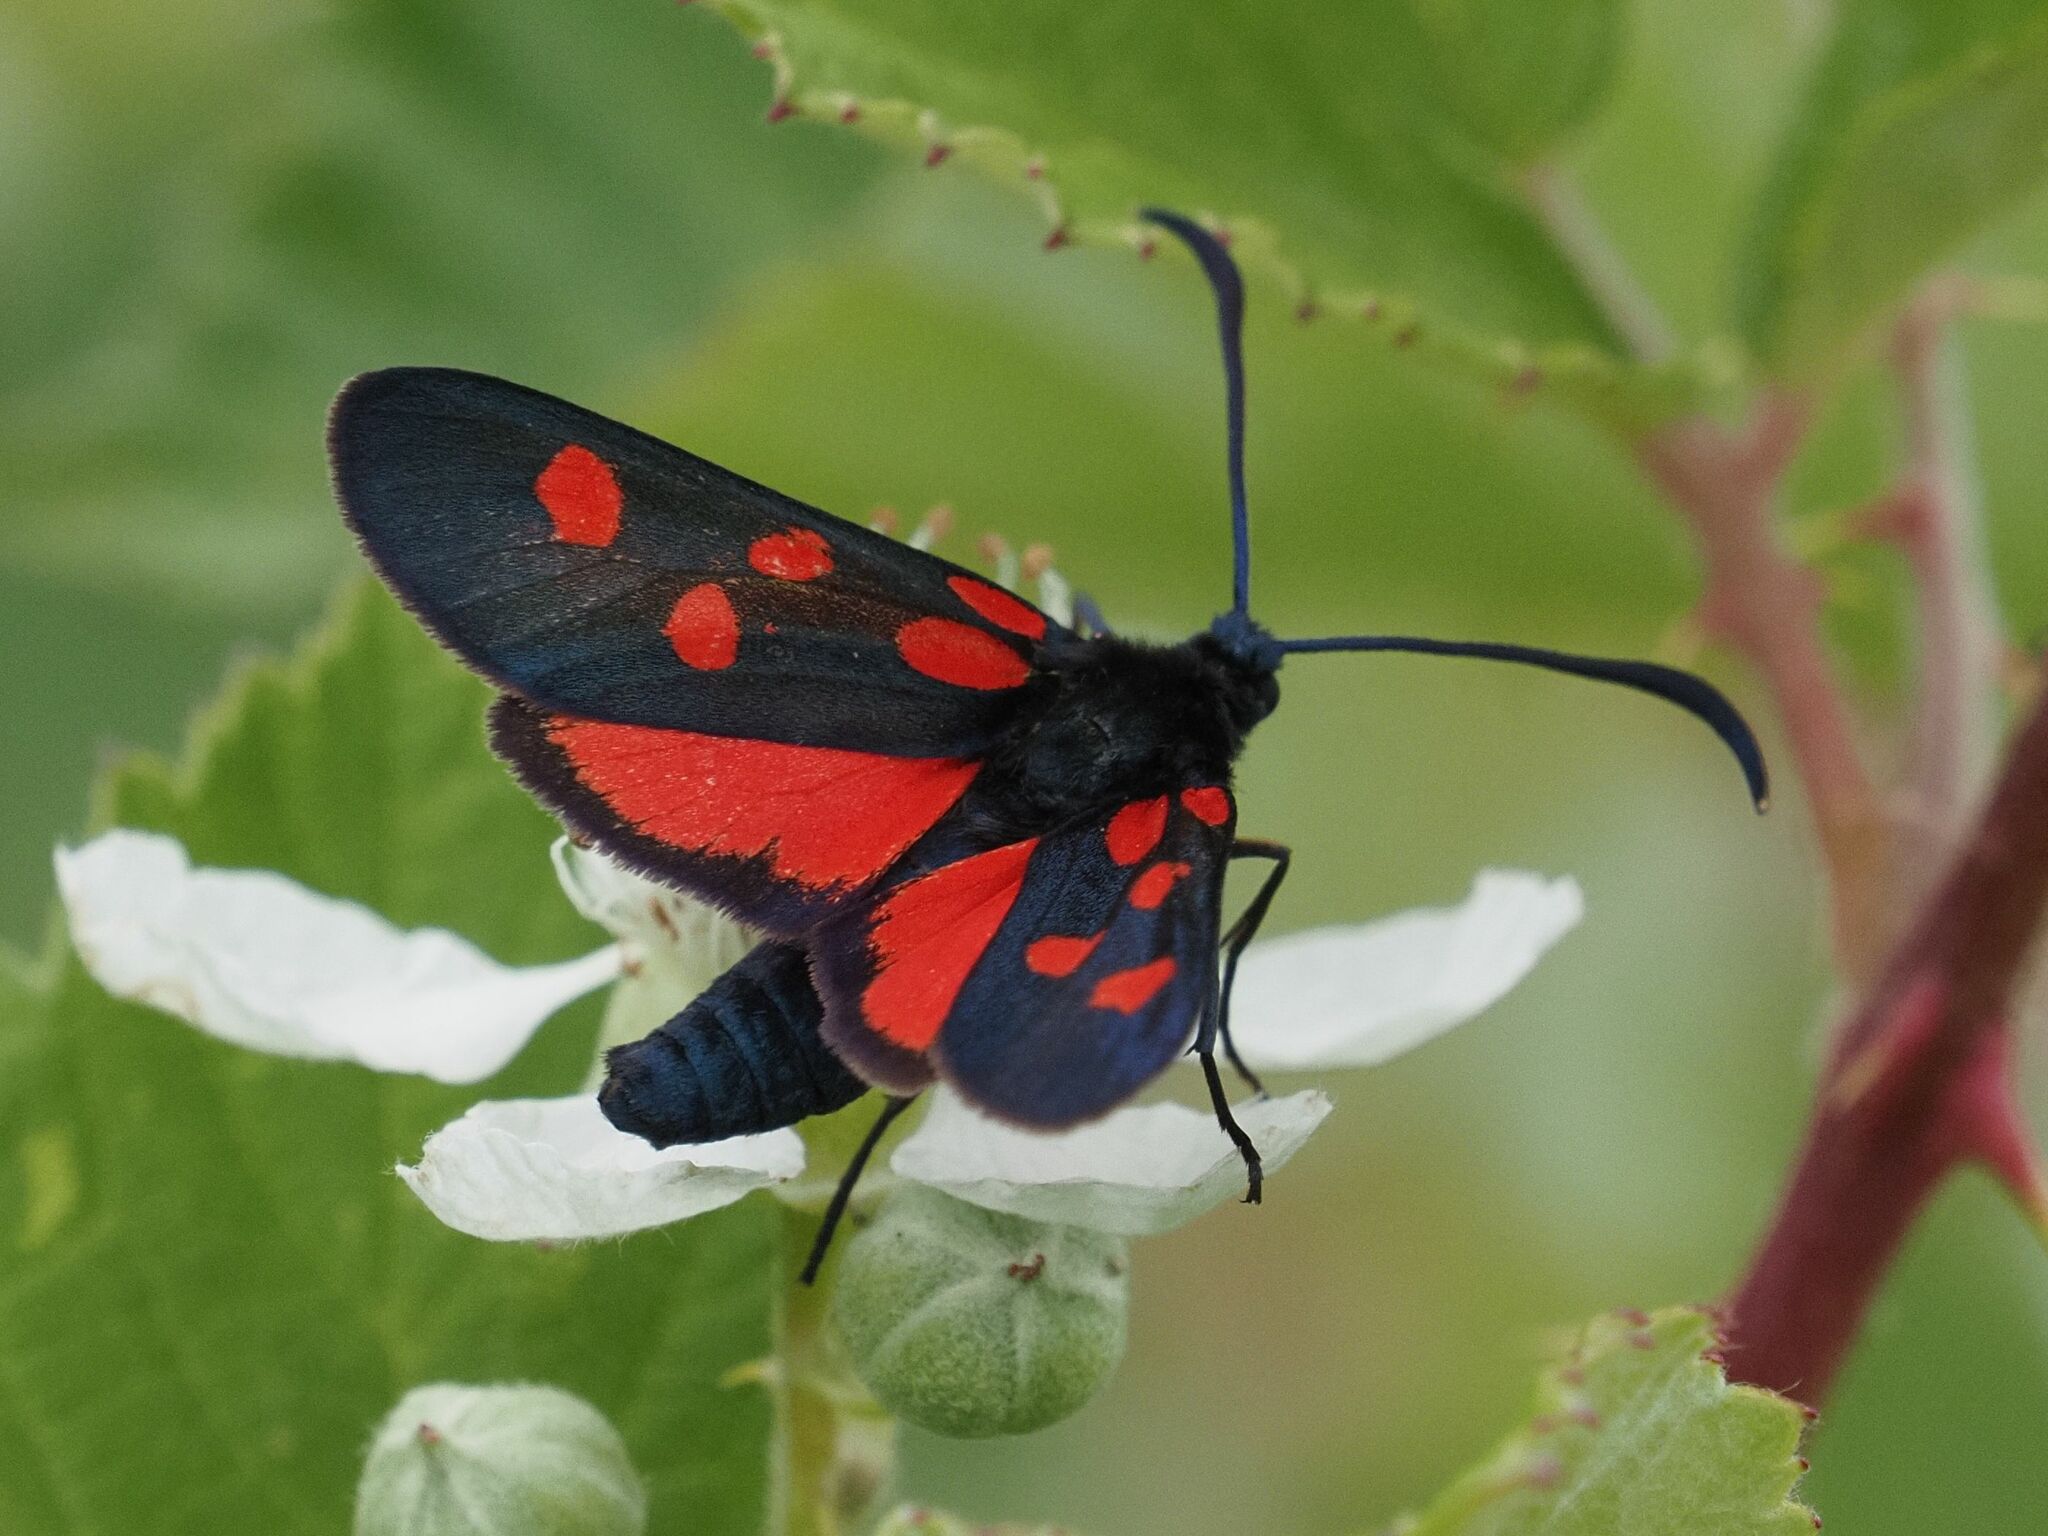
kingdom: Animalia
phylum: Arthropoda
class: Insecta
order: Lepidoptera
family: Zygaenidae
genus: Zygaena
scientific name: Zygaena angelicae
